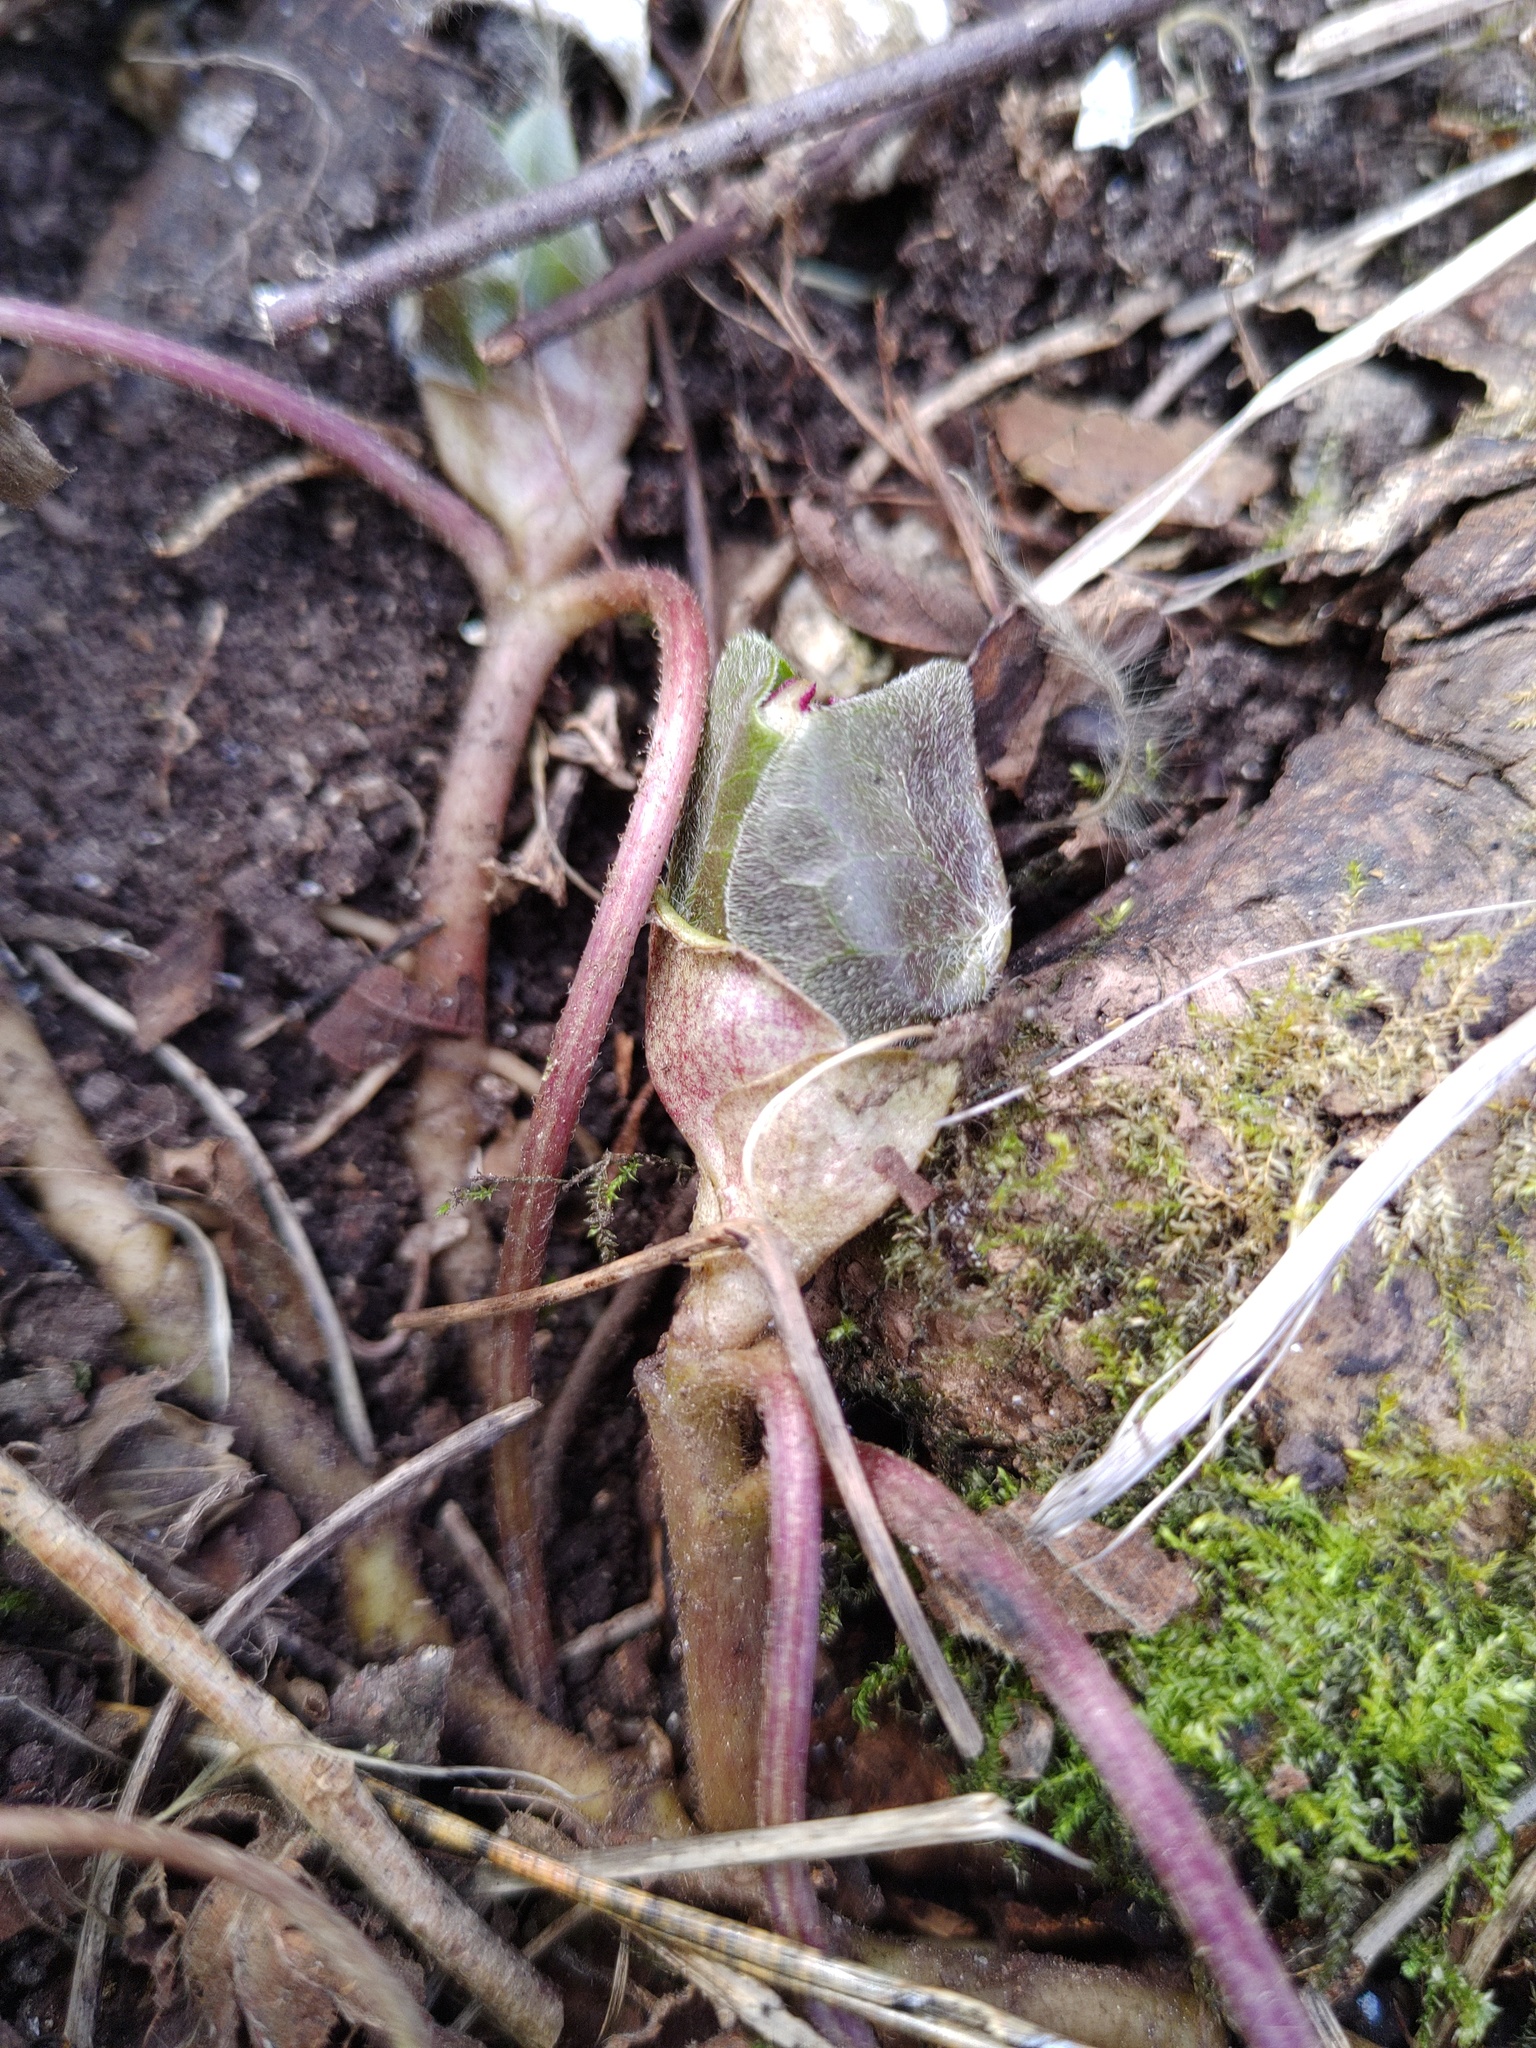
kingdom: Plantae
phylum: Tracheophyta
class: Magnoliopsida
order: Piperales
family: Aristolochiaceae
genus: Asarum
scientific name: Asarum europaeum
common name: Asarabacca
